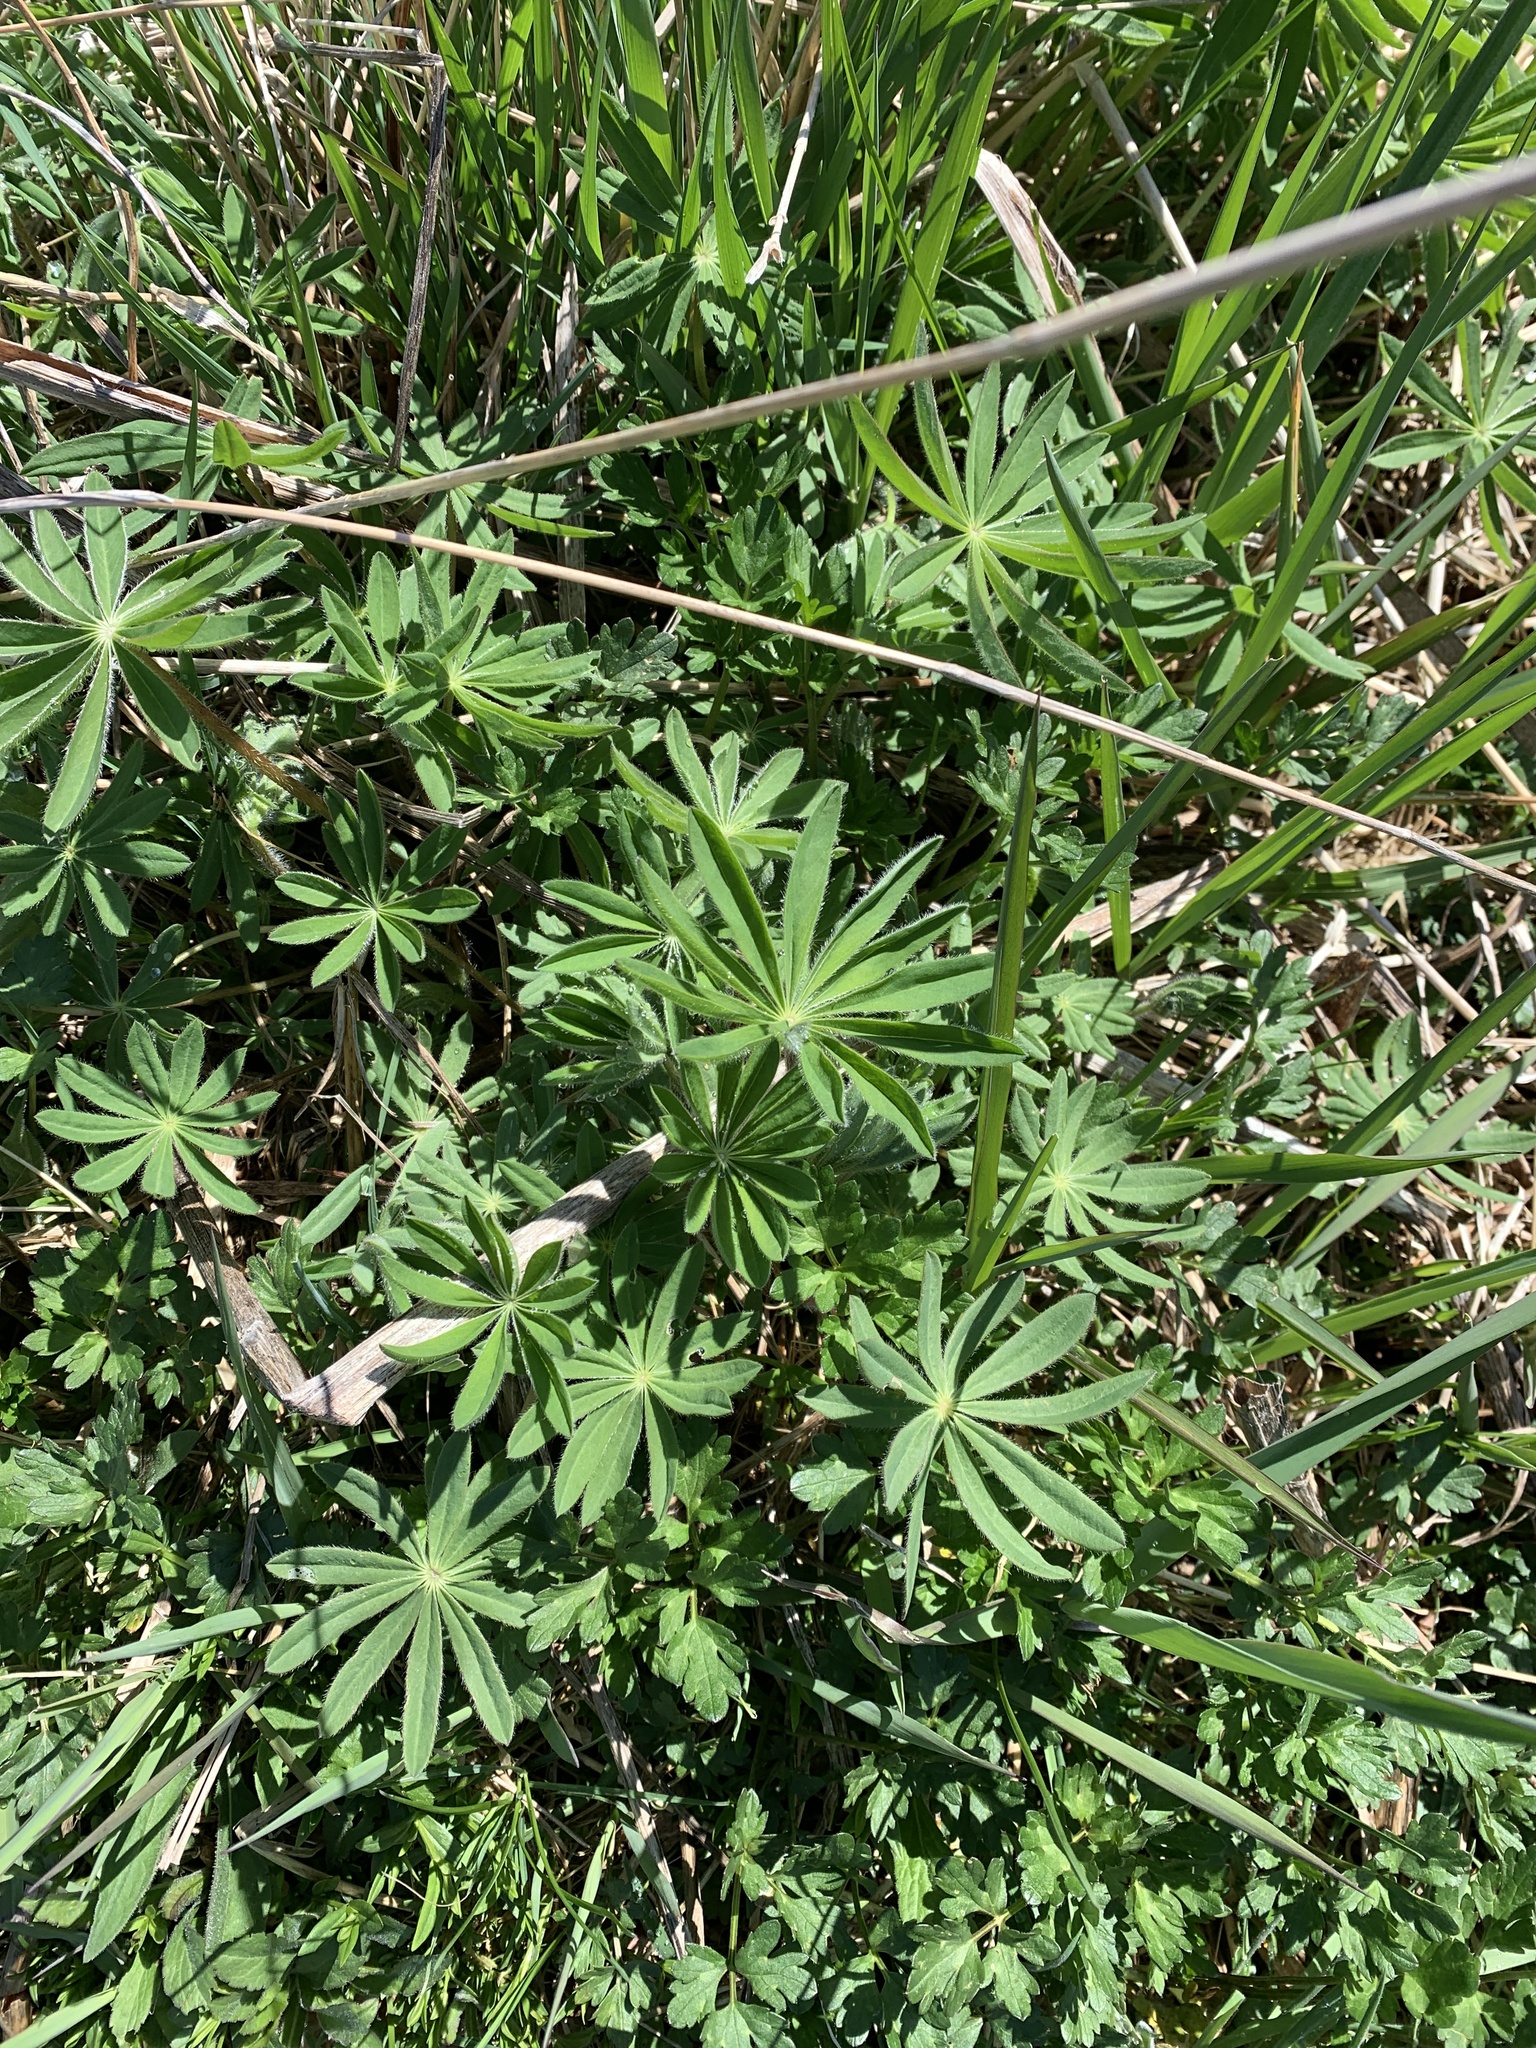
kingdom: Plantae
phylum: Tracheophyta
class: Magnoliopsida
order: Fabales
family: Fabaceae
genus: Lupinus
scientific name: Lupinus polyphyllus
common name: Garden lupin
